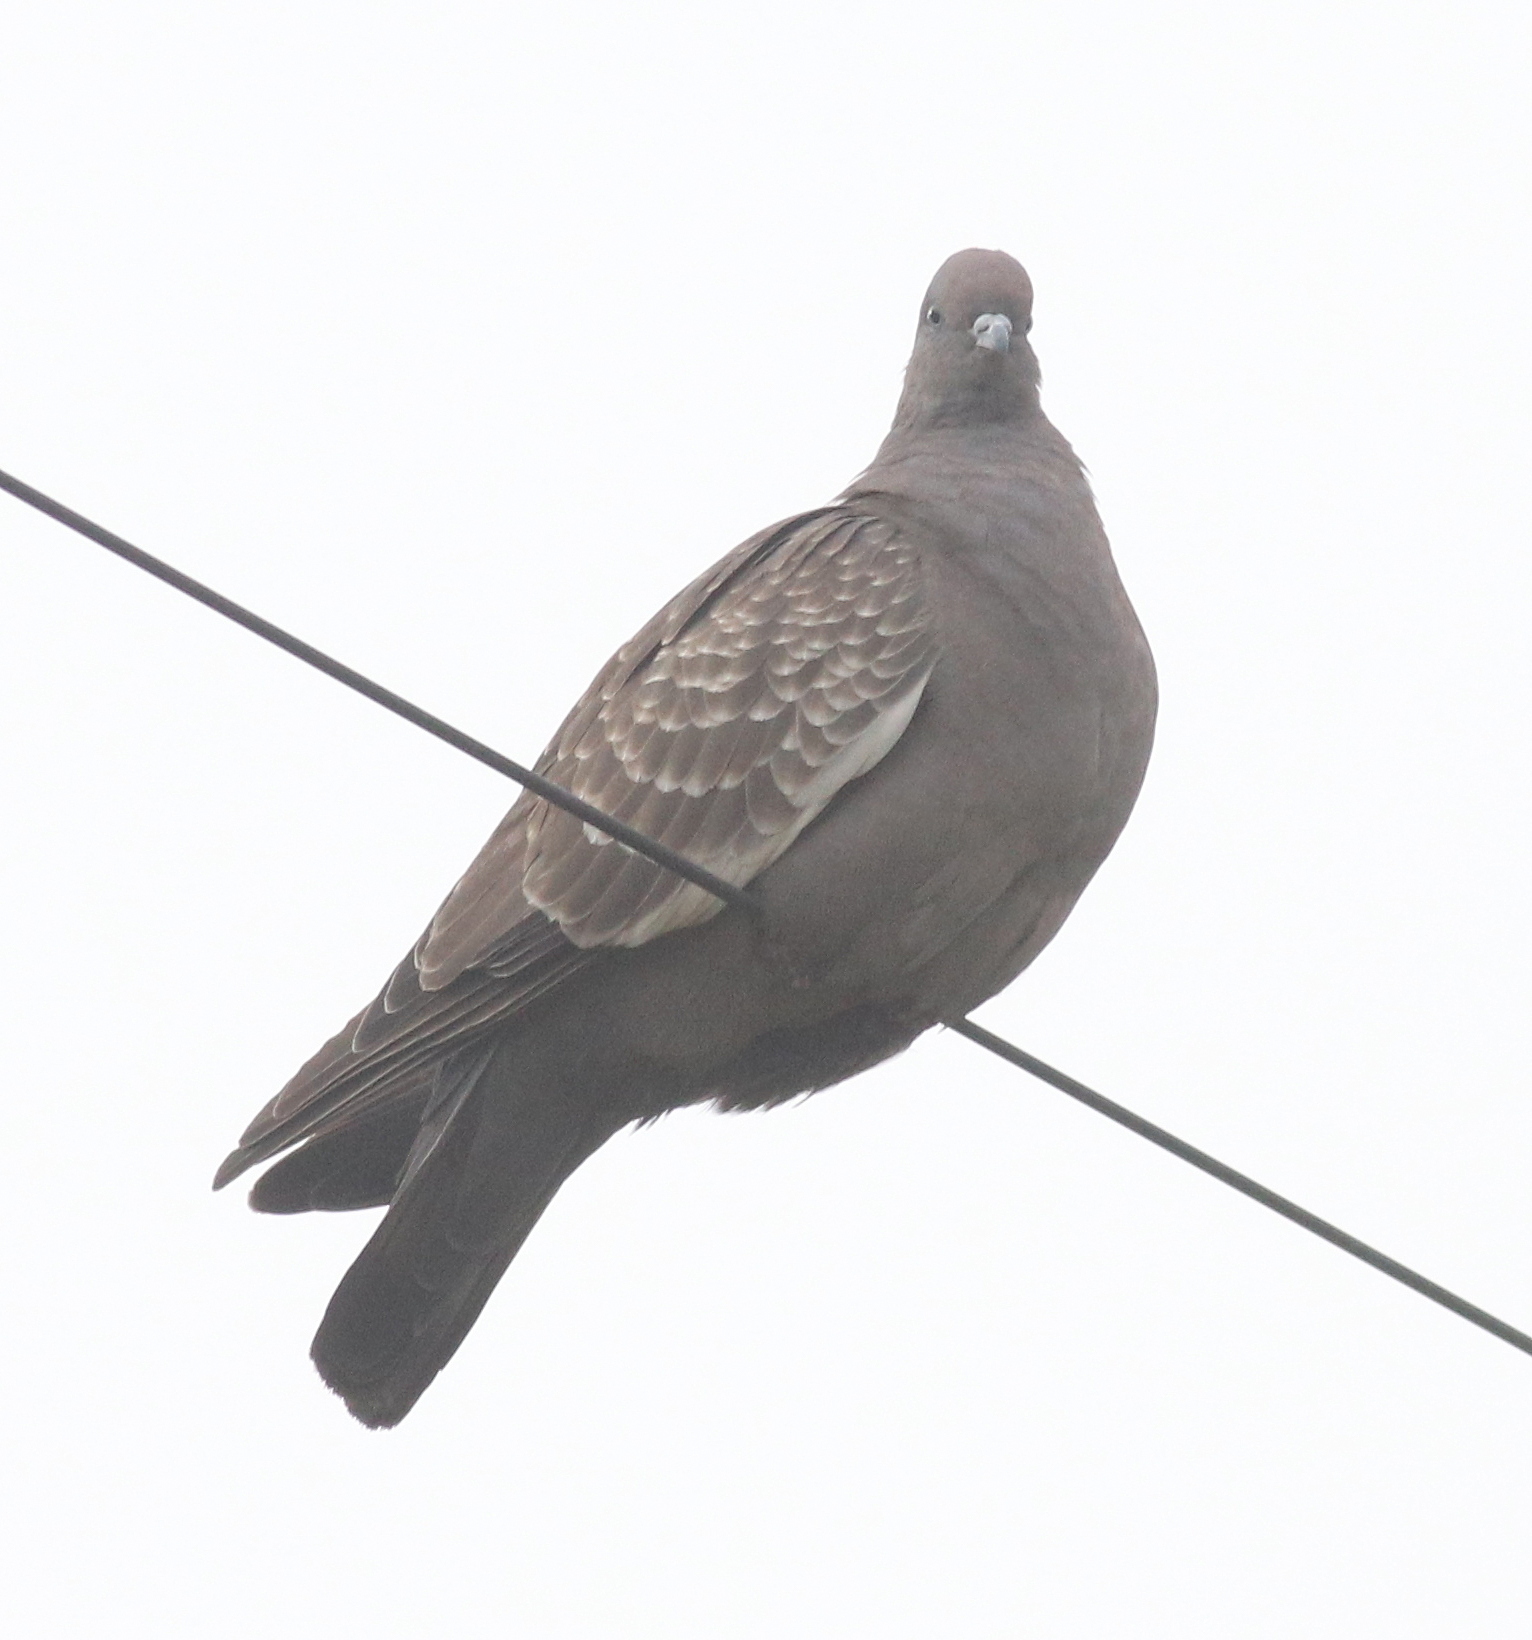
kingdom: Animalia
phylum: Chordata
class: Aves
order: Columbiformes
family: Columbidae
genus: Patagioenas
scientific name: Patagioenas maculosa
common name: Spot-winged pigeon
